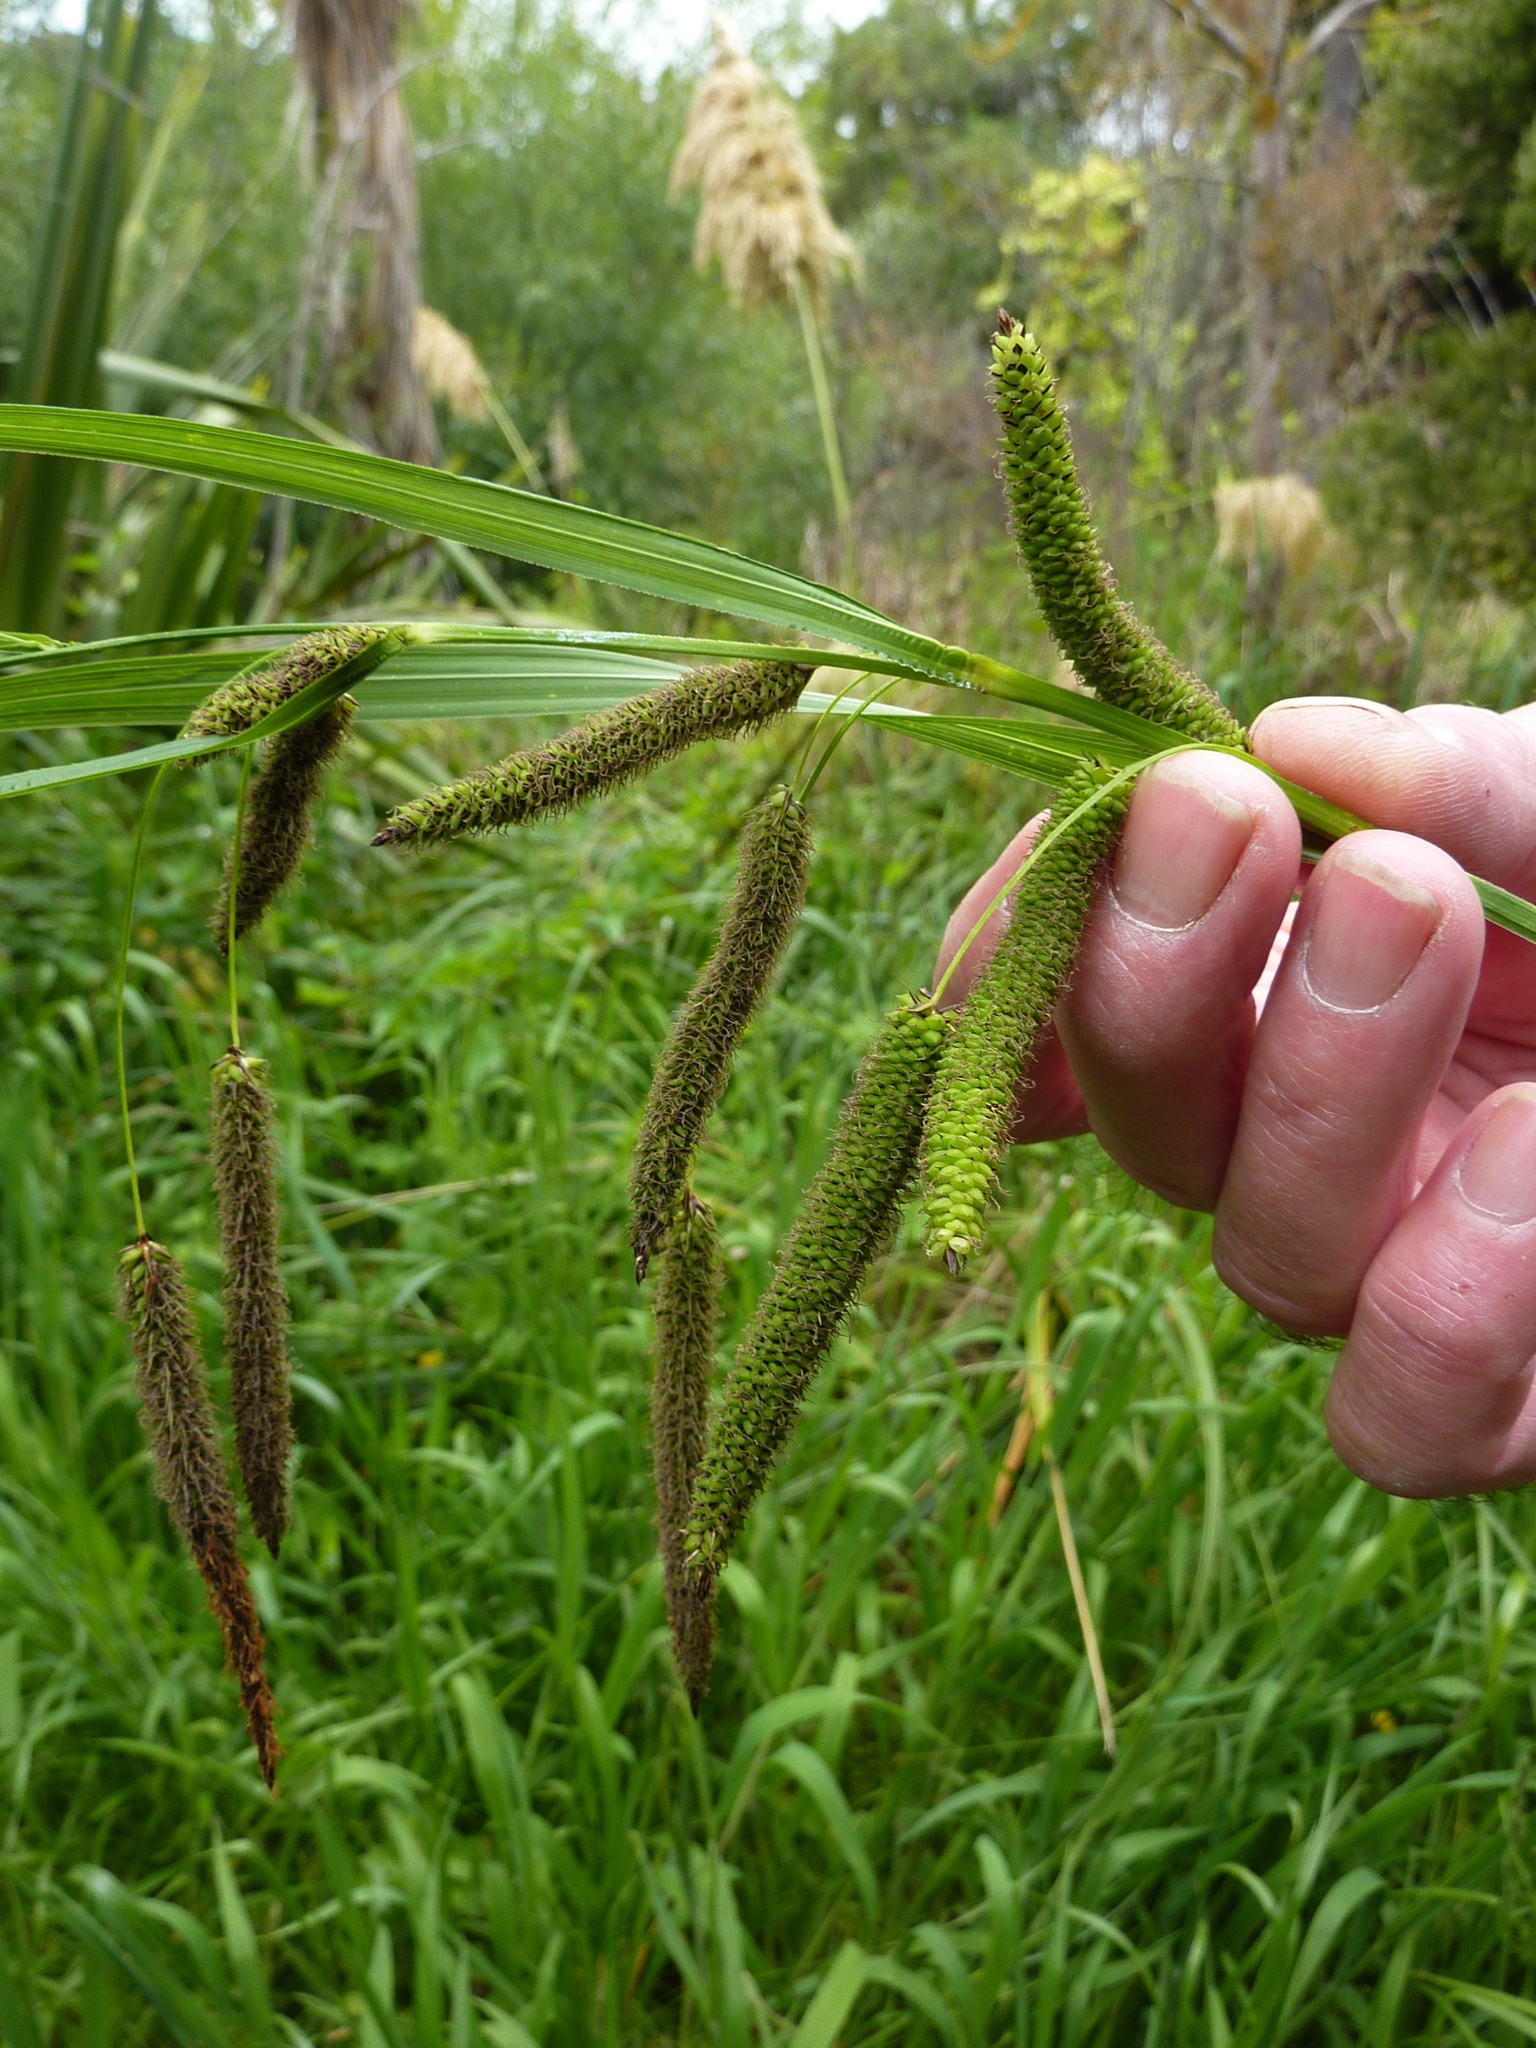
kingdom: Plantae
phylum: Tracheophyta
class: Liliopsida
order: Poales
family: Cyperaceae
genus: Carex
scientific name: Carex geminata
